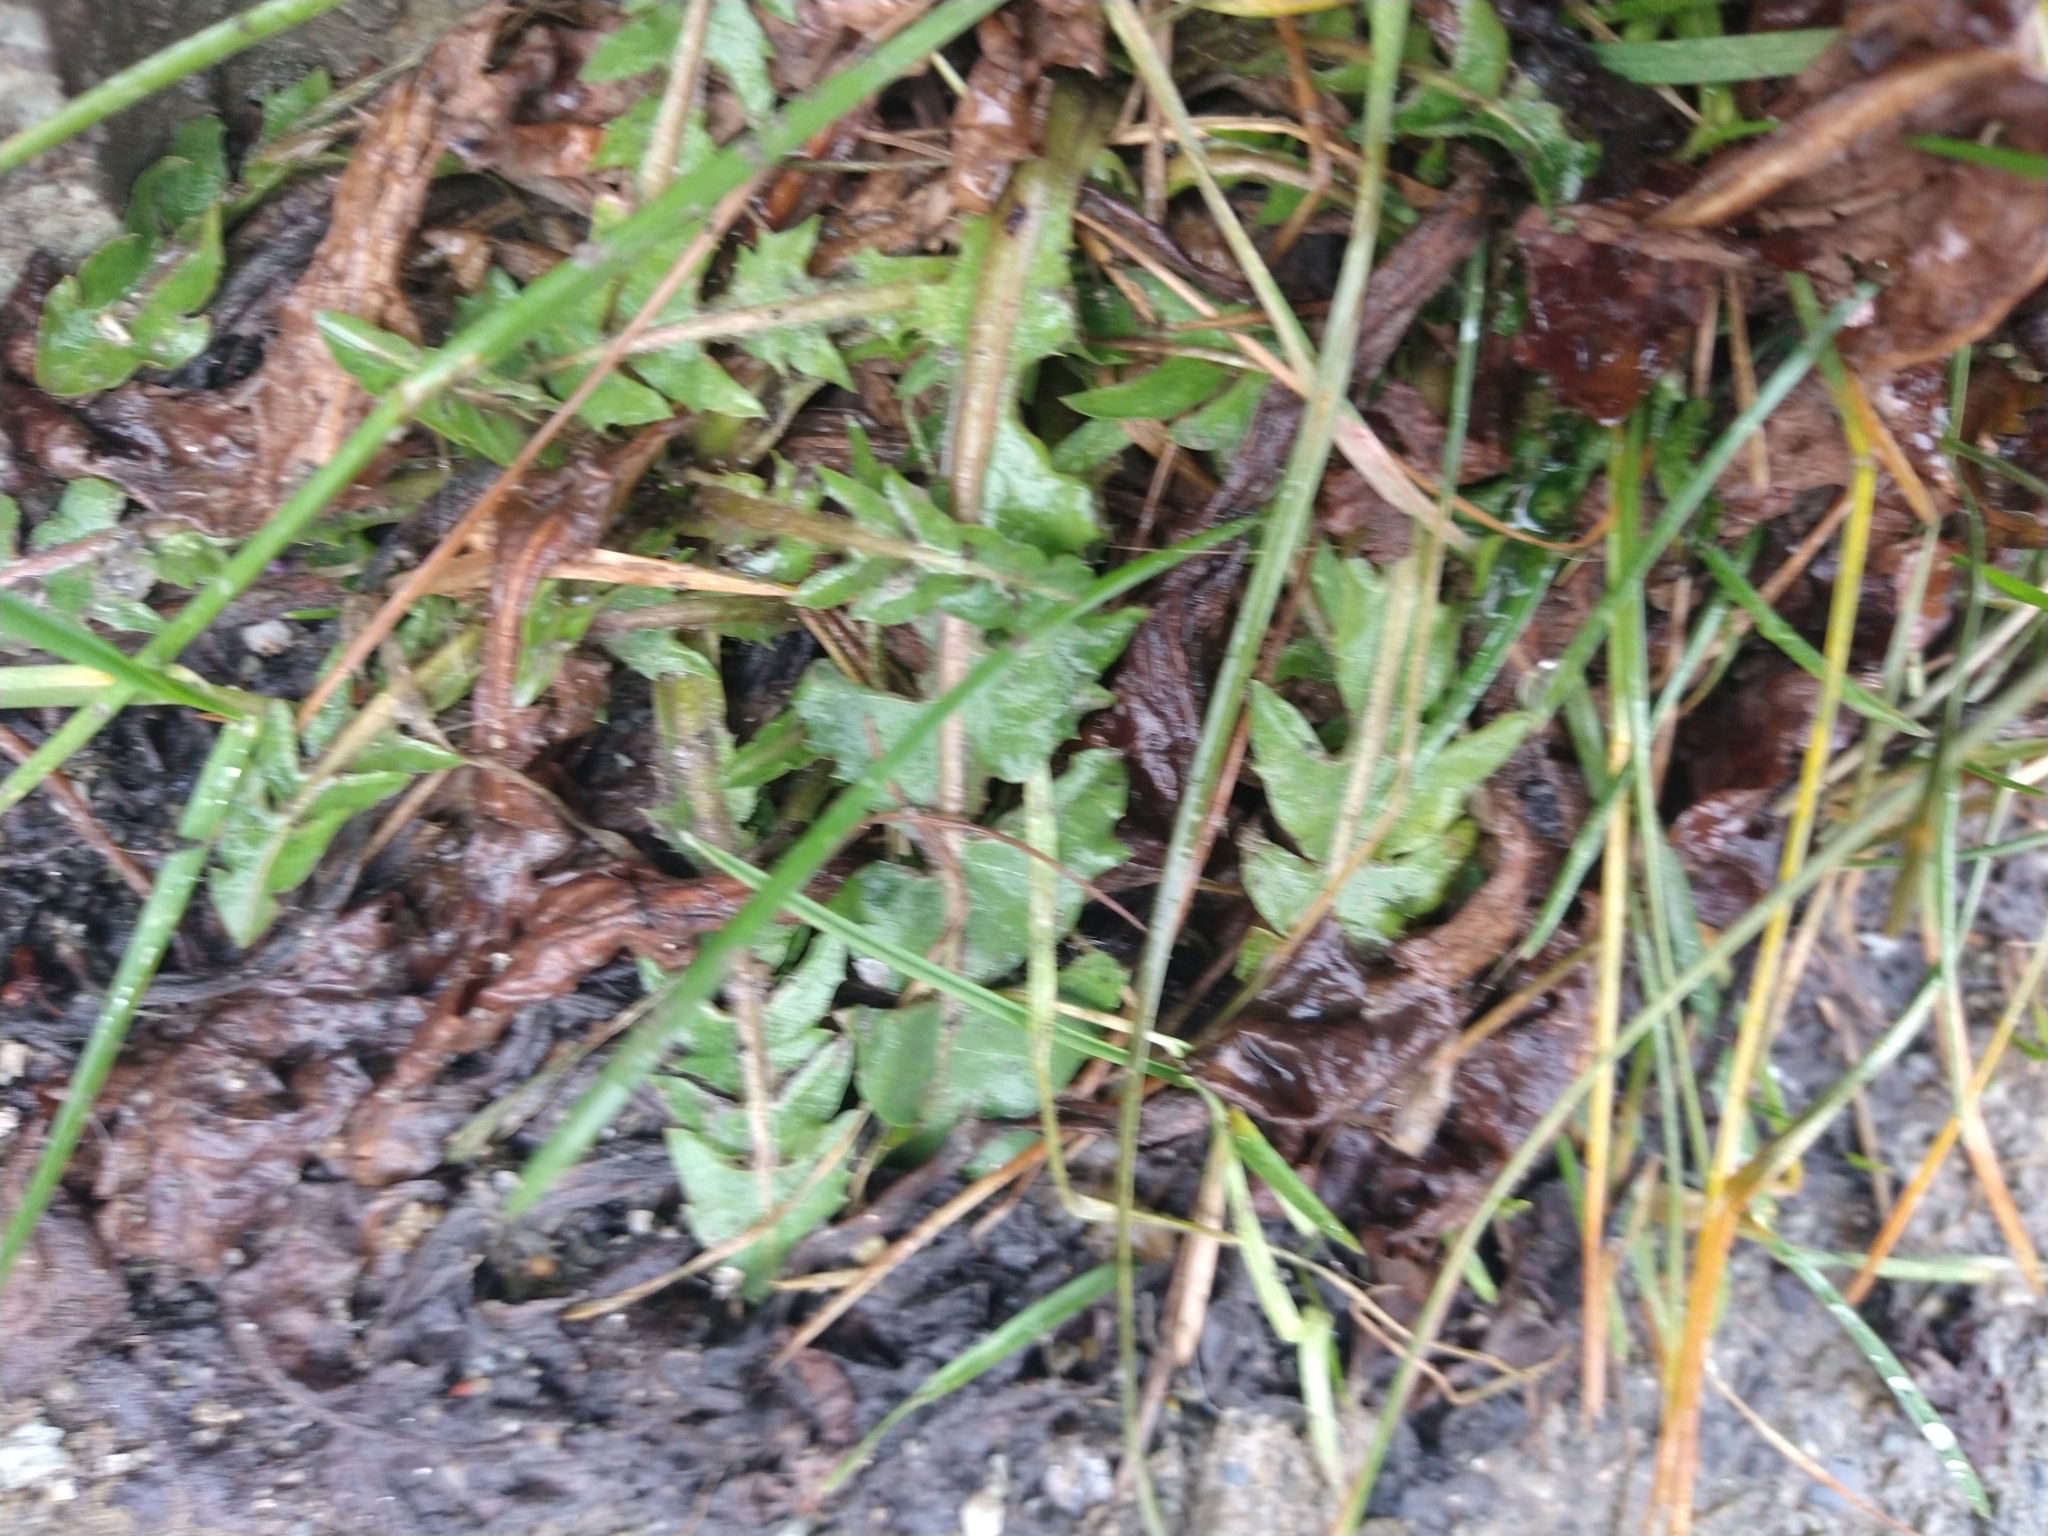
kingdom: Plantae
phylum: Tracheophyta
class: Magnoliopsida
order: Asterales
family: Asteraceae
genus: Taraxacum
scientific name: Taraxacum officinale
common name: Common dandelion
